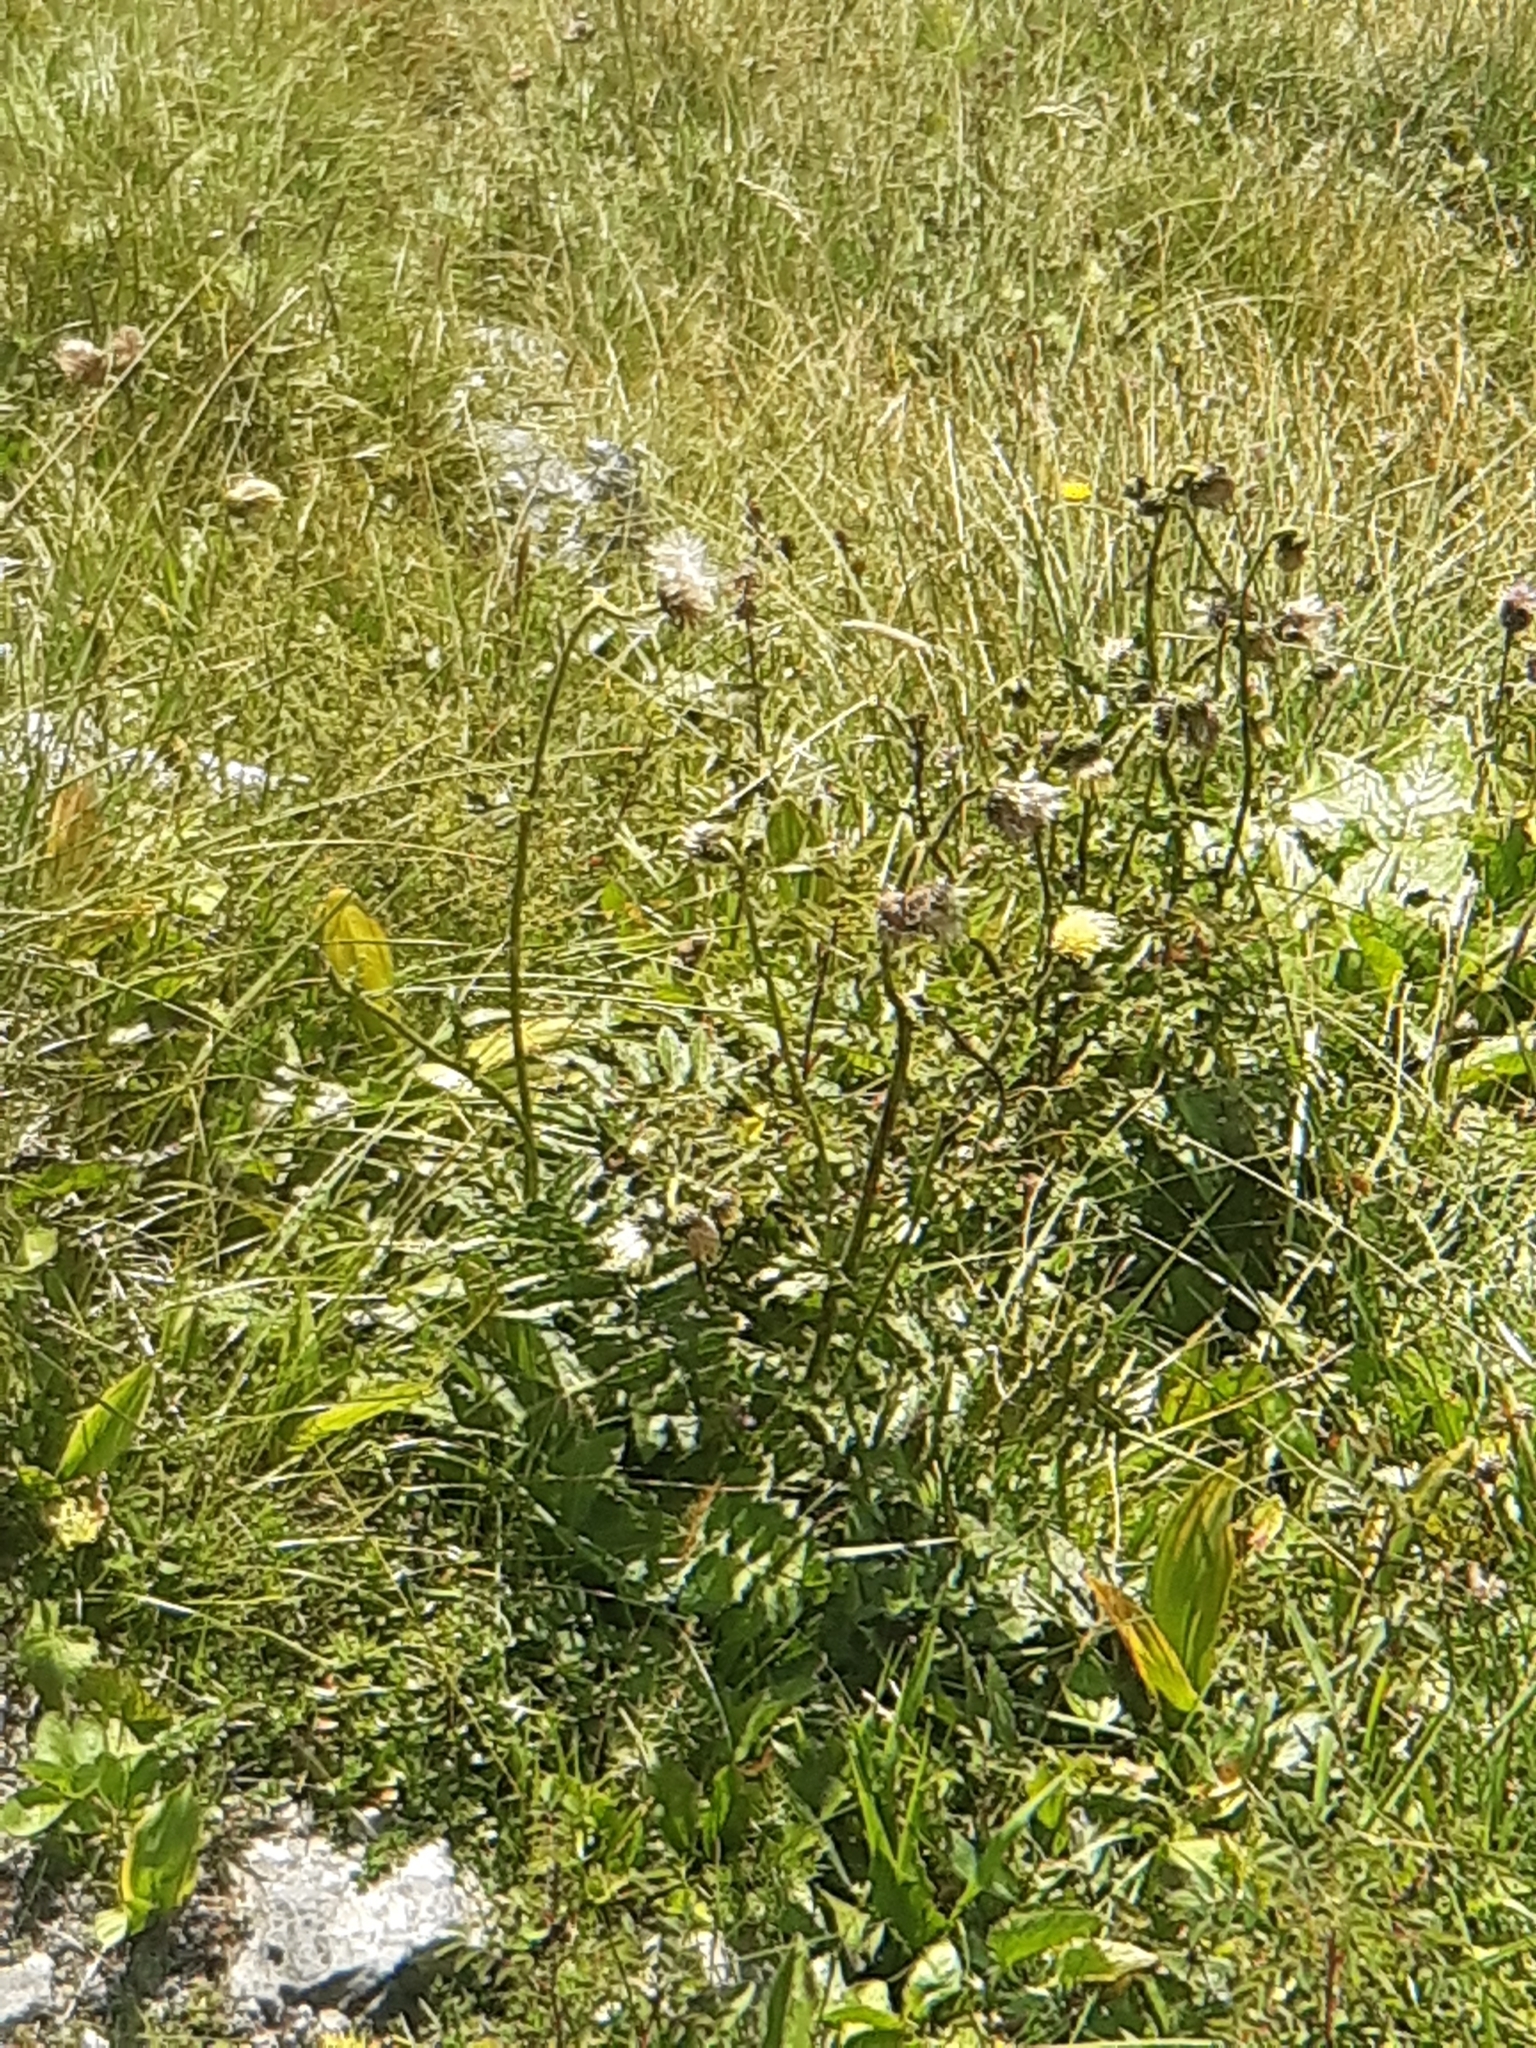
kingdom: Plantae
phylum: Tracheophyta
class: Magnoliopsida
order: Asterales
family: Asteraceae
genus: Cirsium
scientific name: Cirsium erisithales
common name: Yellow thistle
